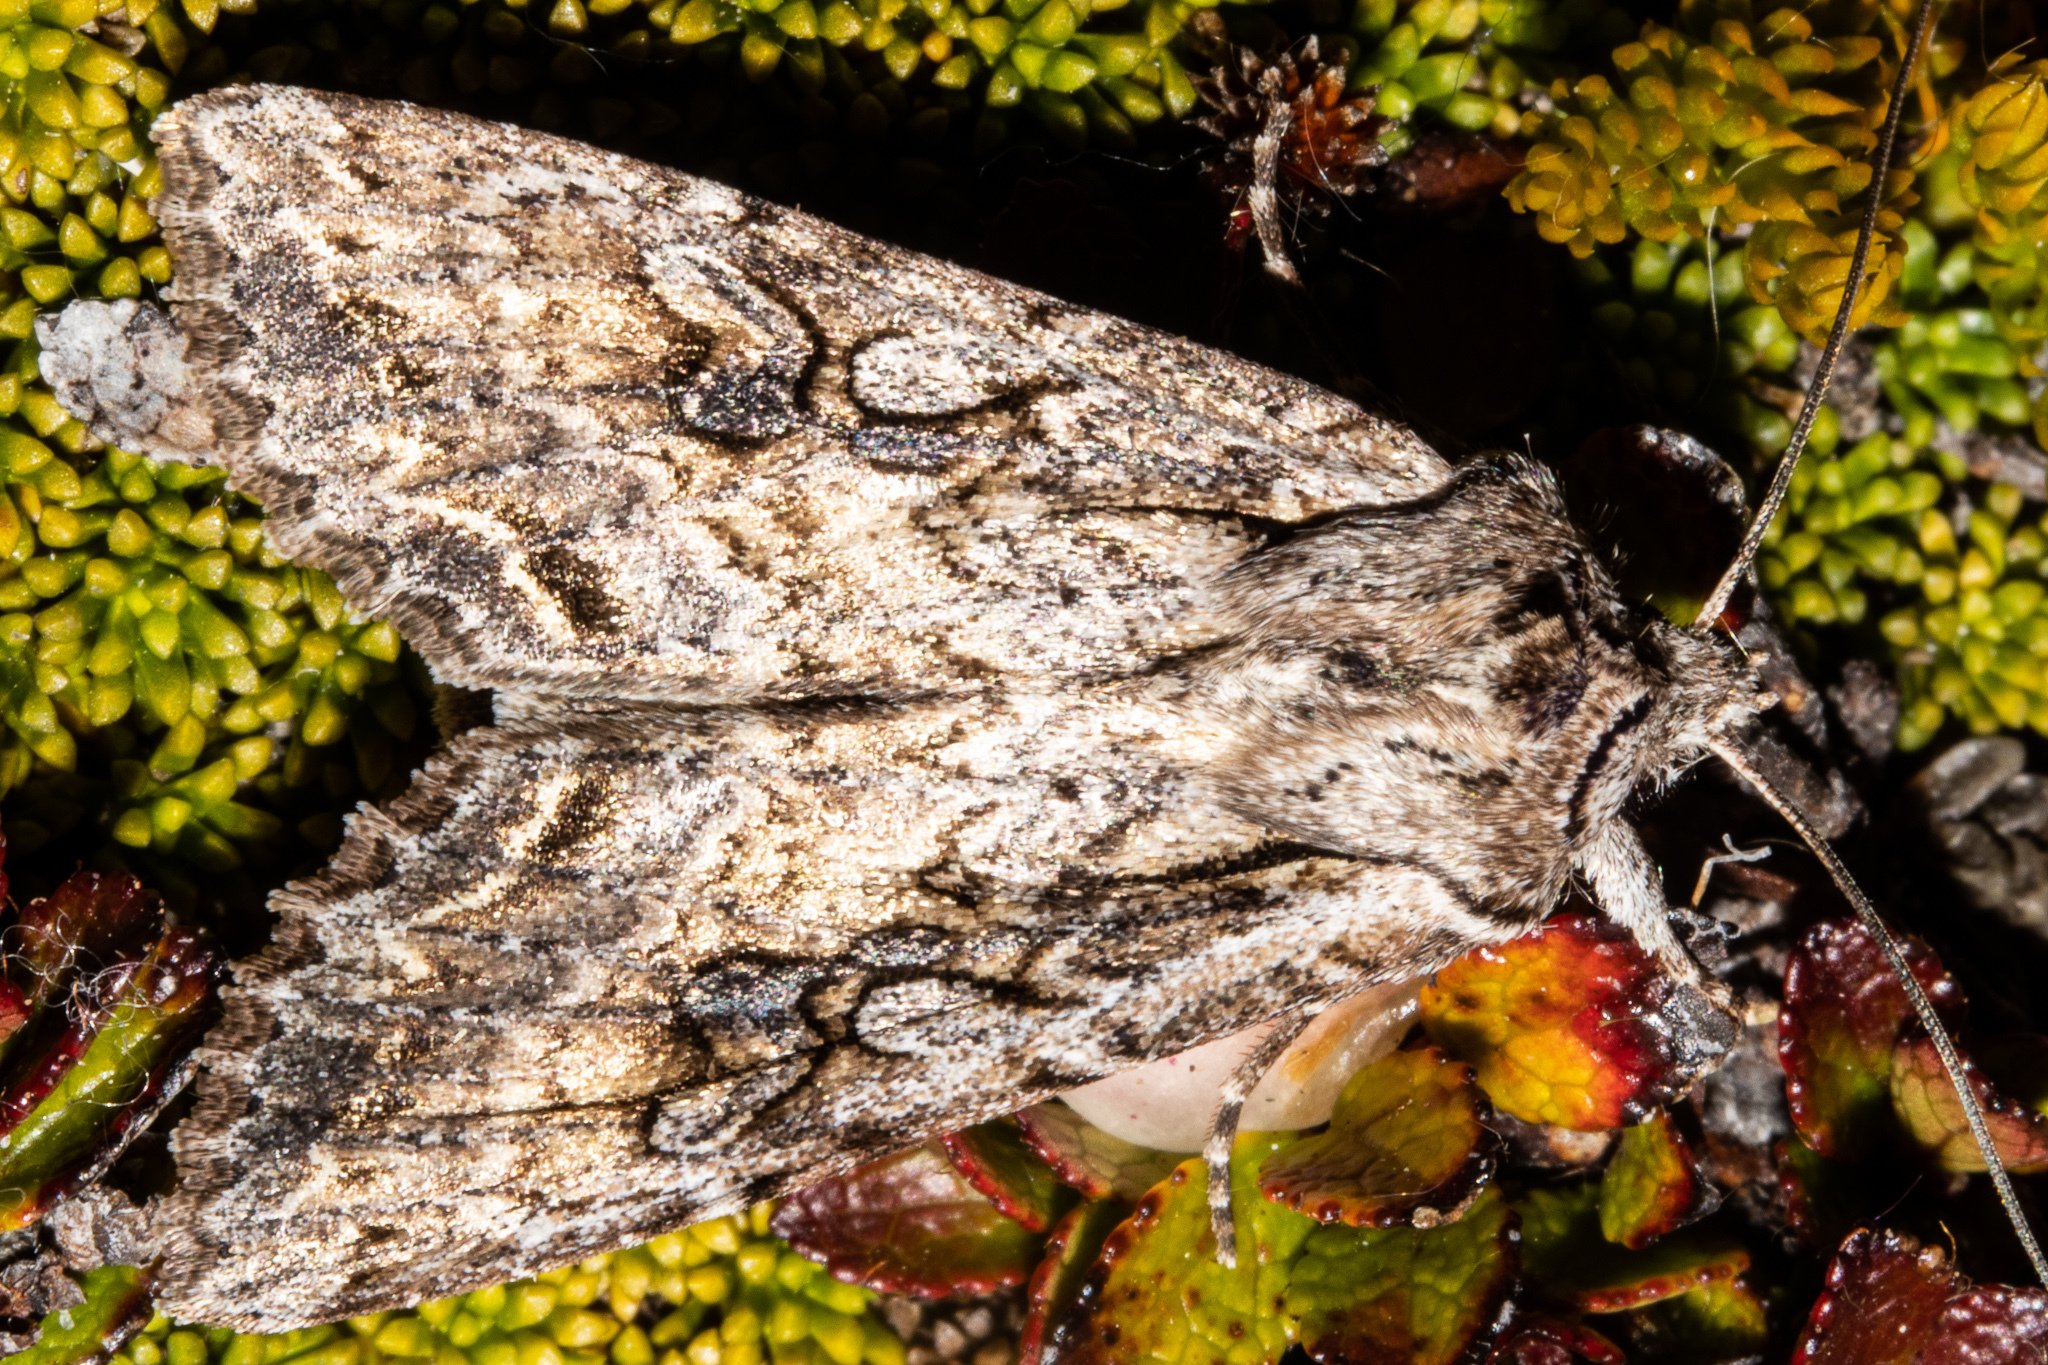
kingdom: Animalia
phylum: Arthropoda
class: Insecta
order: Lepidoptera
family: Noctuidae
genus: Ichneutica
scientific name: Ichneutica lindsayorum
